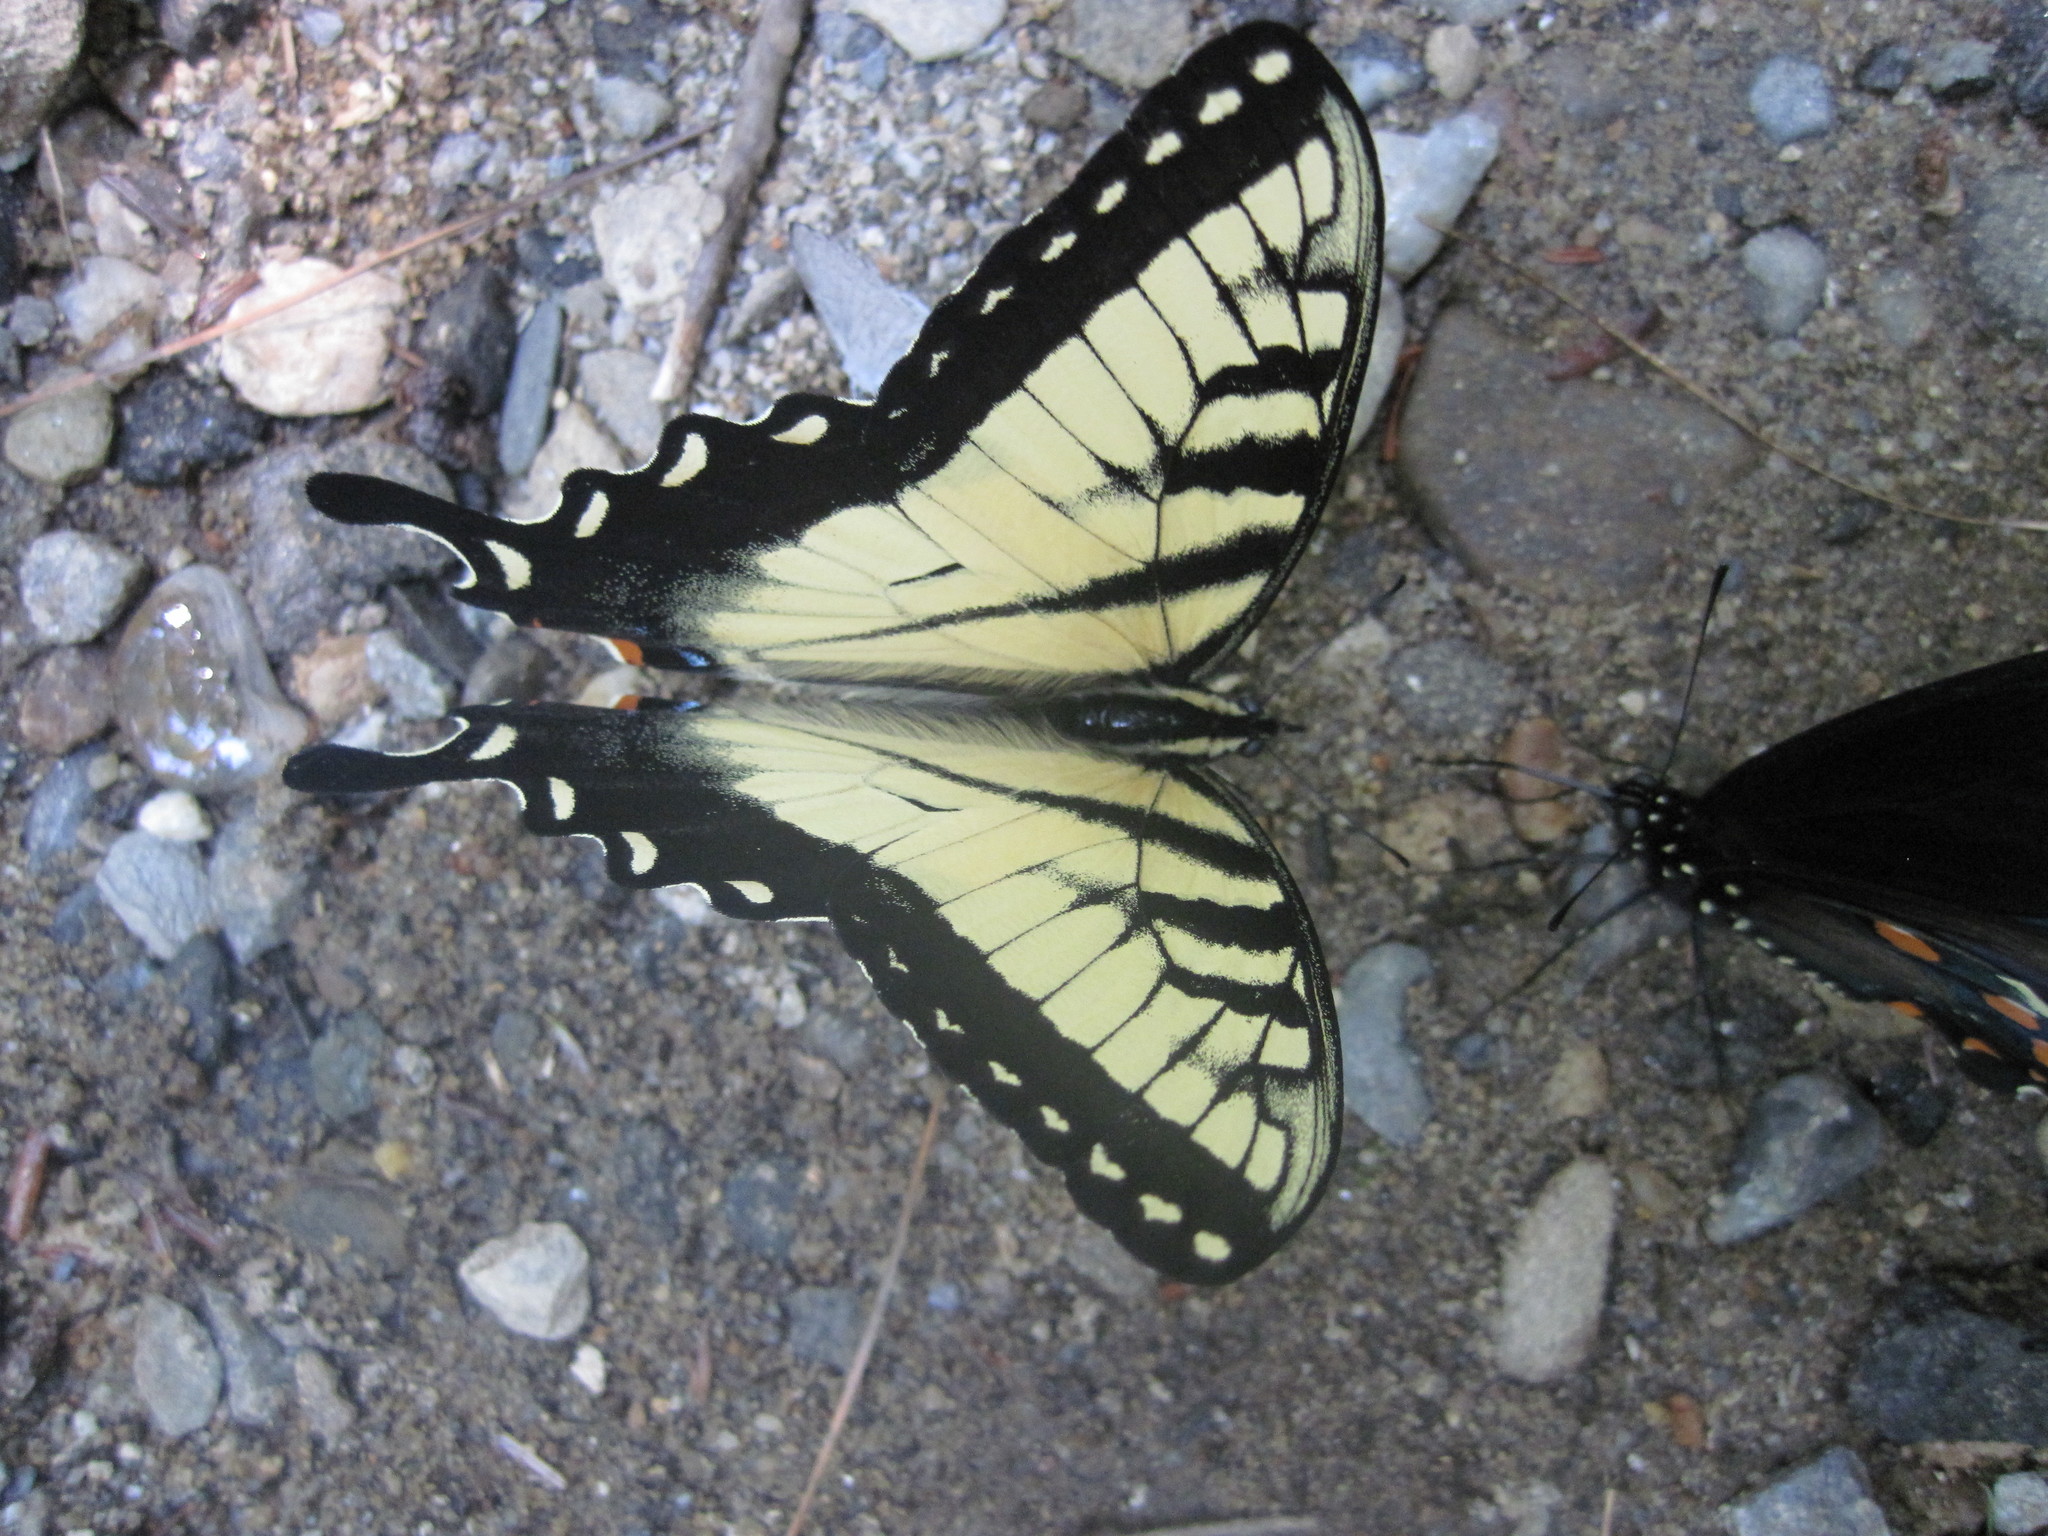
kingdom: Animalia
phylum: Arthropoda
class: Insecta
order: Lepidoptera
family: Papilionidae
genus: Papilio
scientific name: Papilio glaucus
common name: Tiger swallowtail
